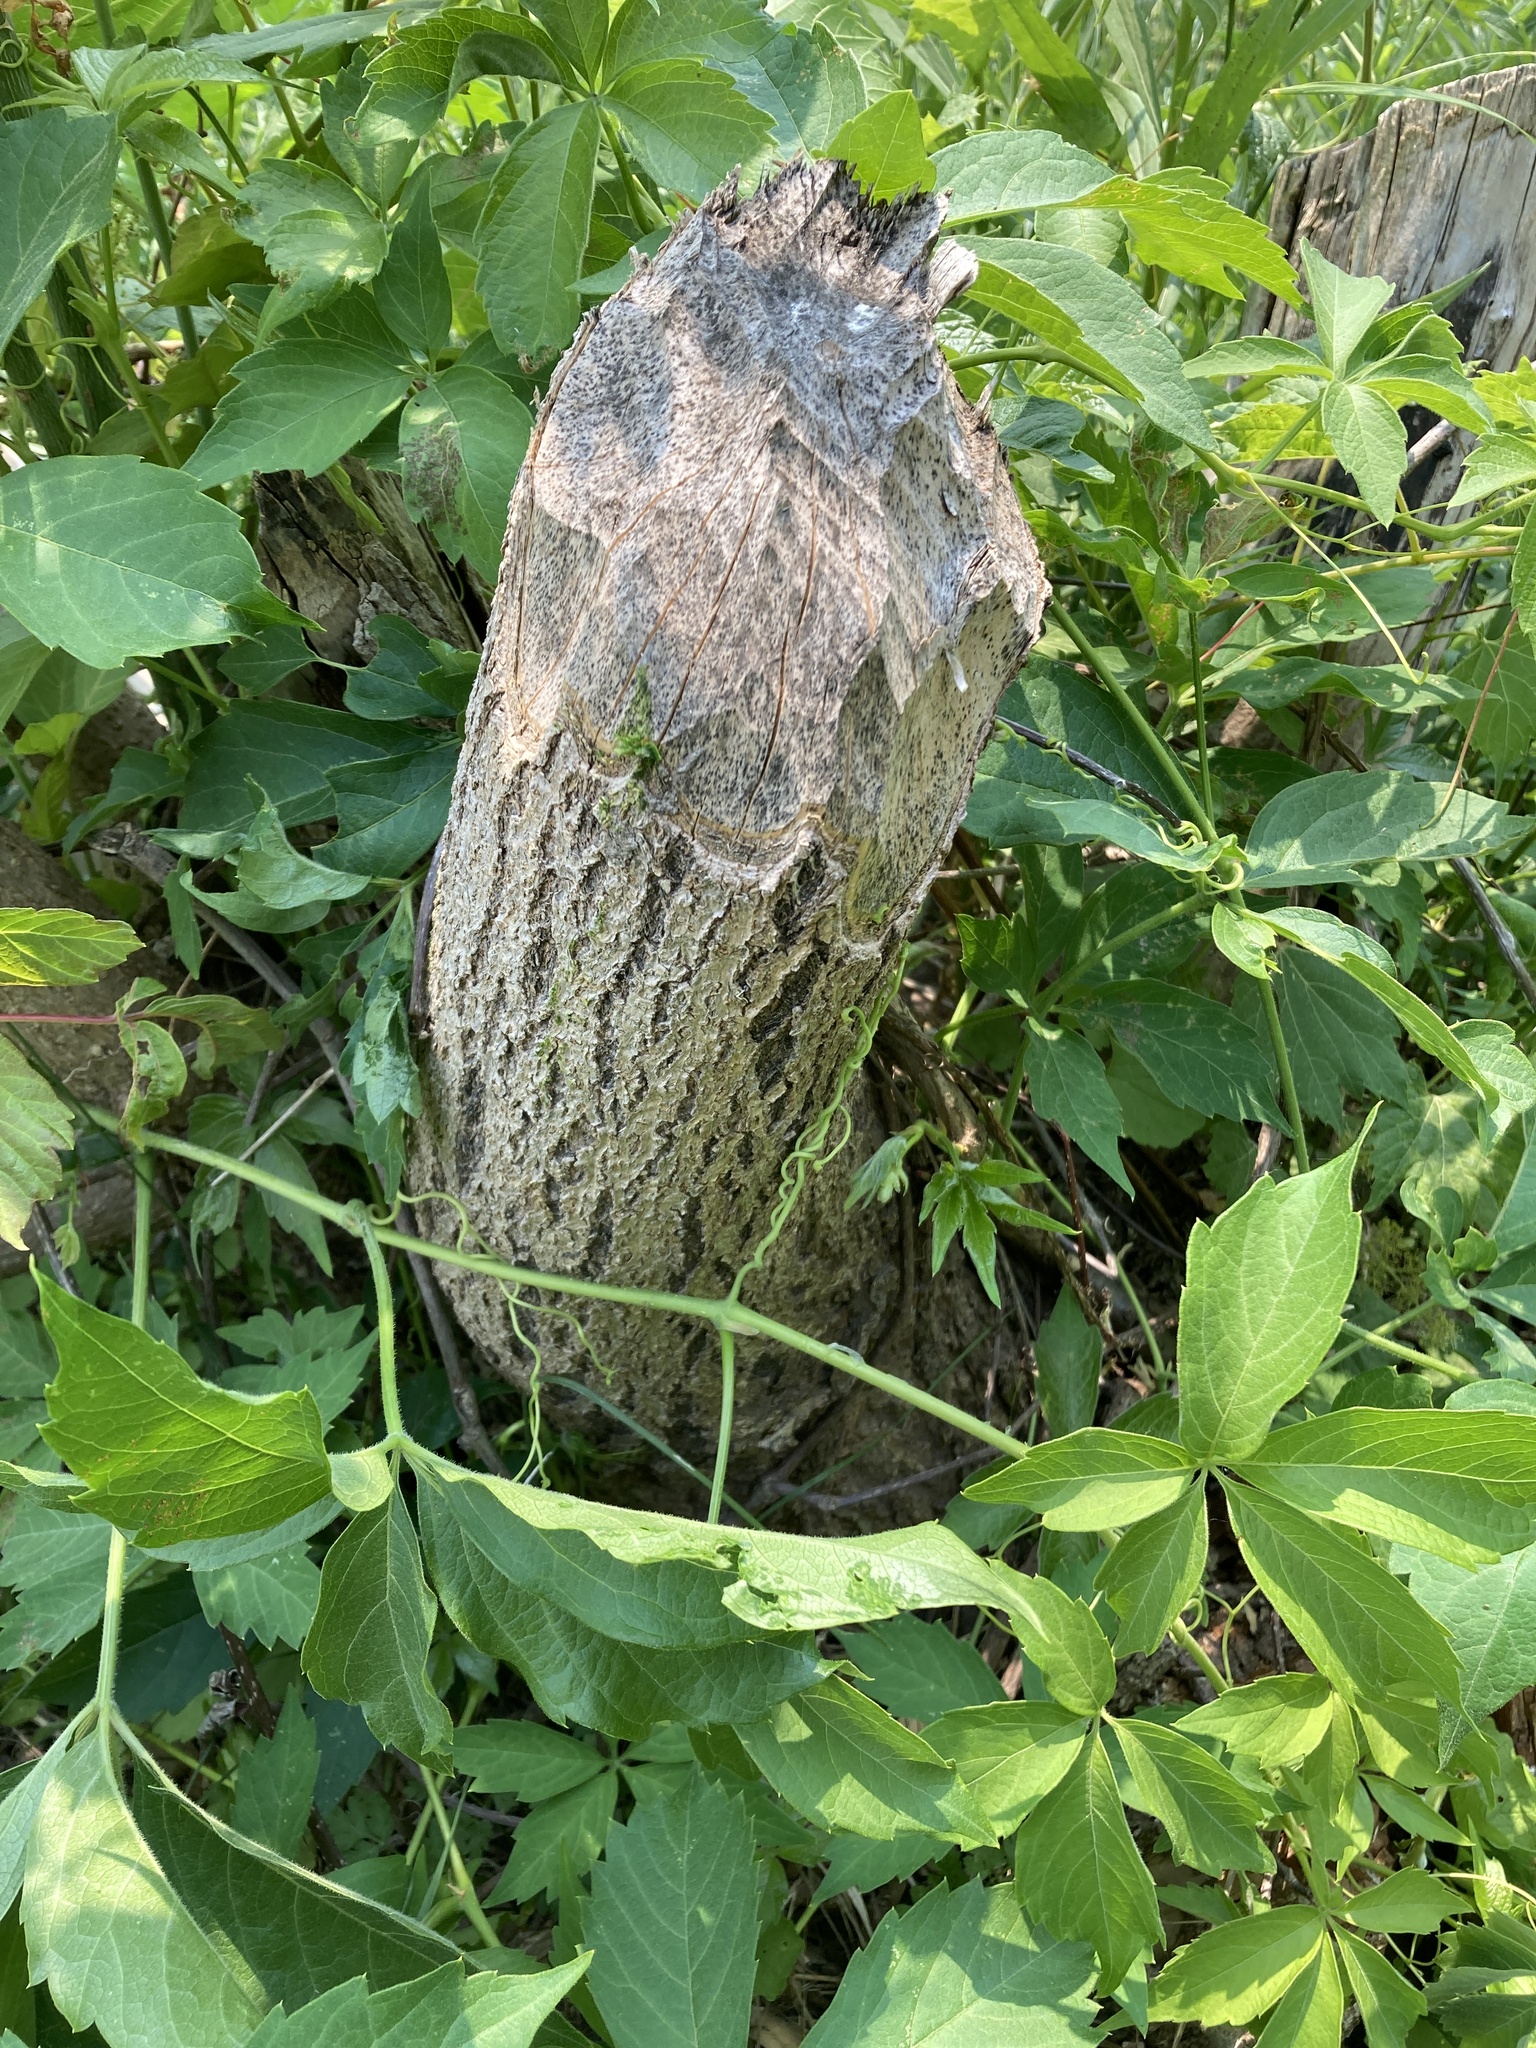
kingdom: Animalia
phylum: Chordata
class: Mammalia
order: Rodentia
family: Castoridae
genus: Castor
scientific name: Castor canadensis
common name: American beaver
